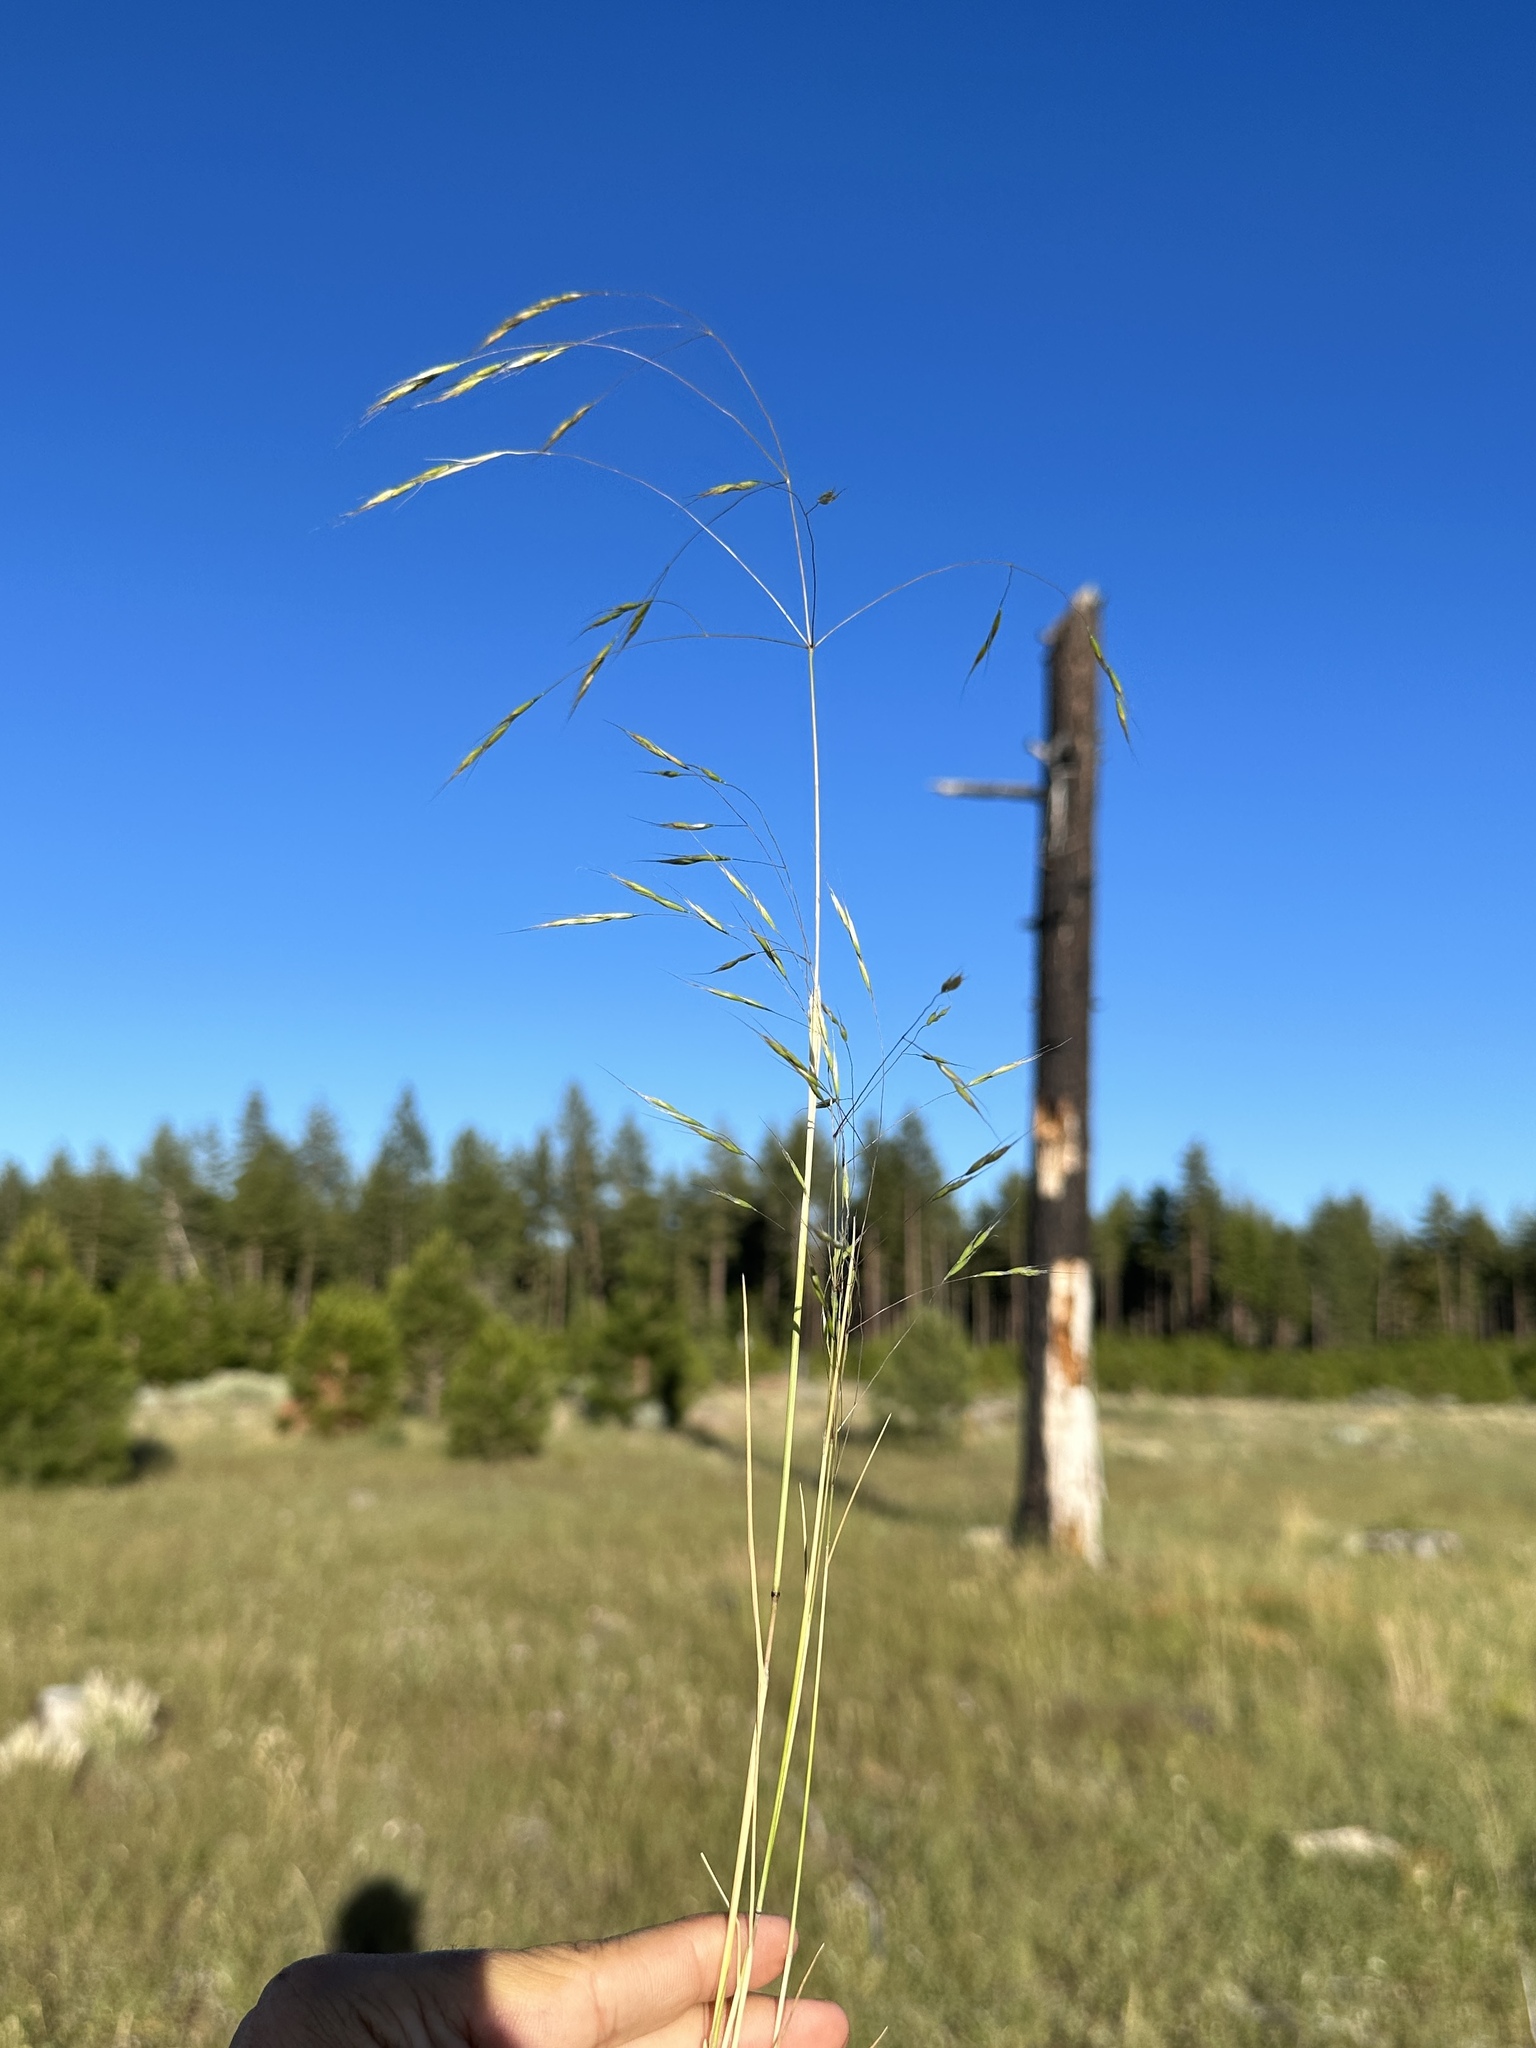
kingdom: Plantae
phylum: Tracheophyta
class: Liliopsida
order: Poales
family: Poaceae
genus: Ventenata
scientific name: Ventenata dubia
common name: North africa grass
